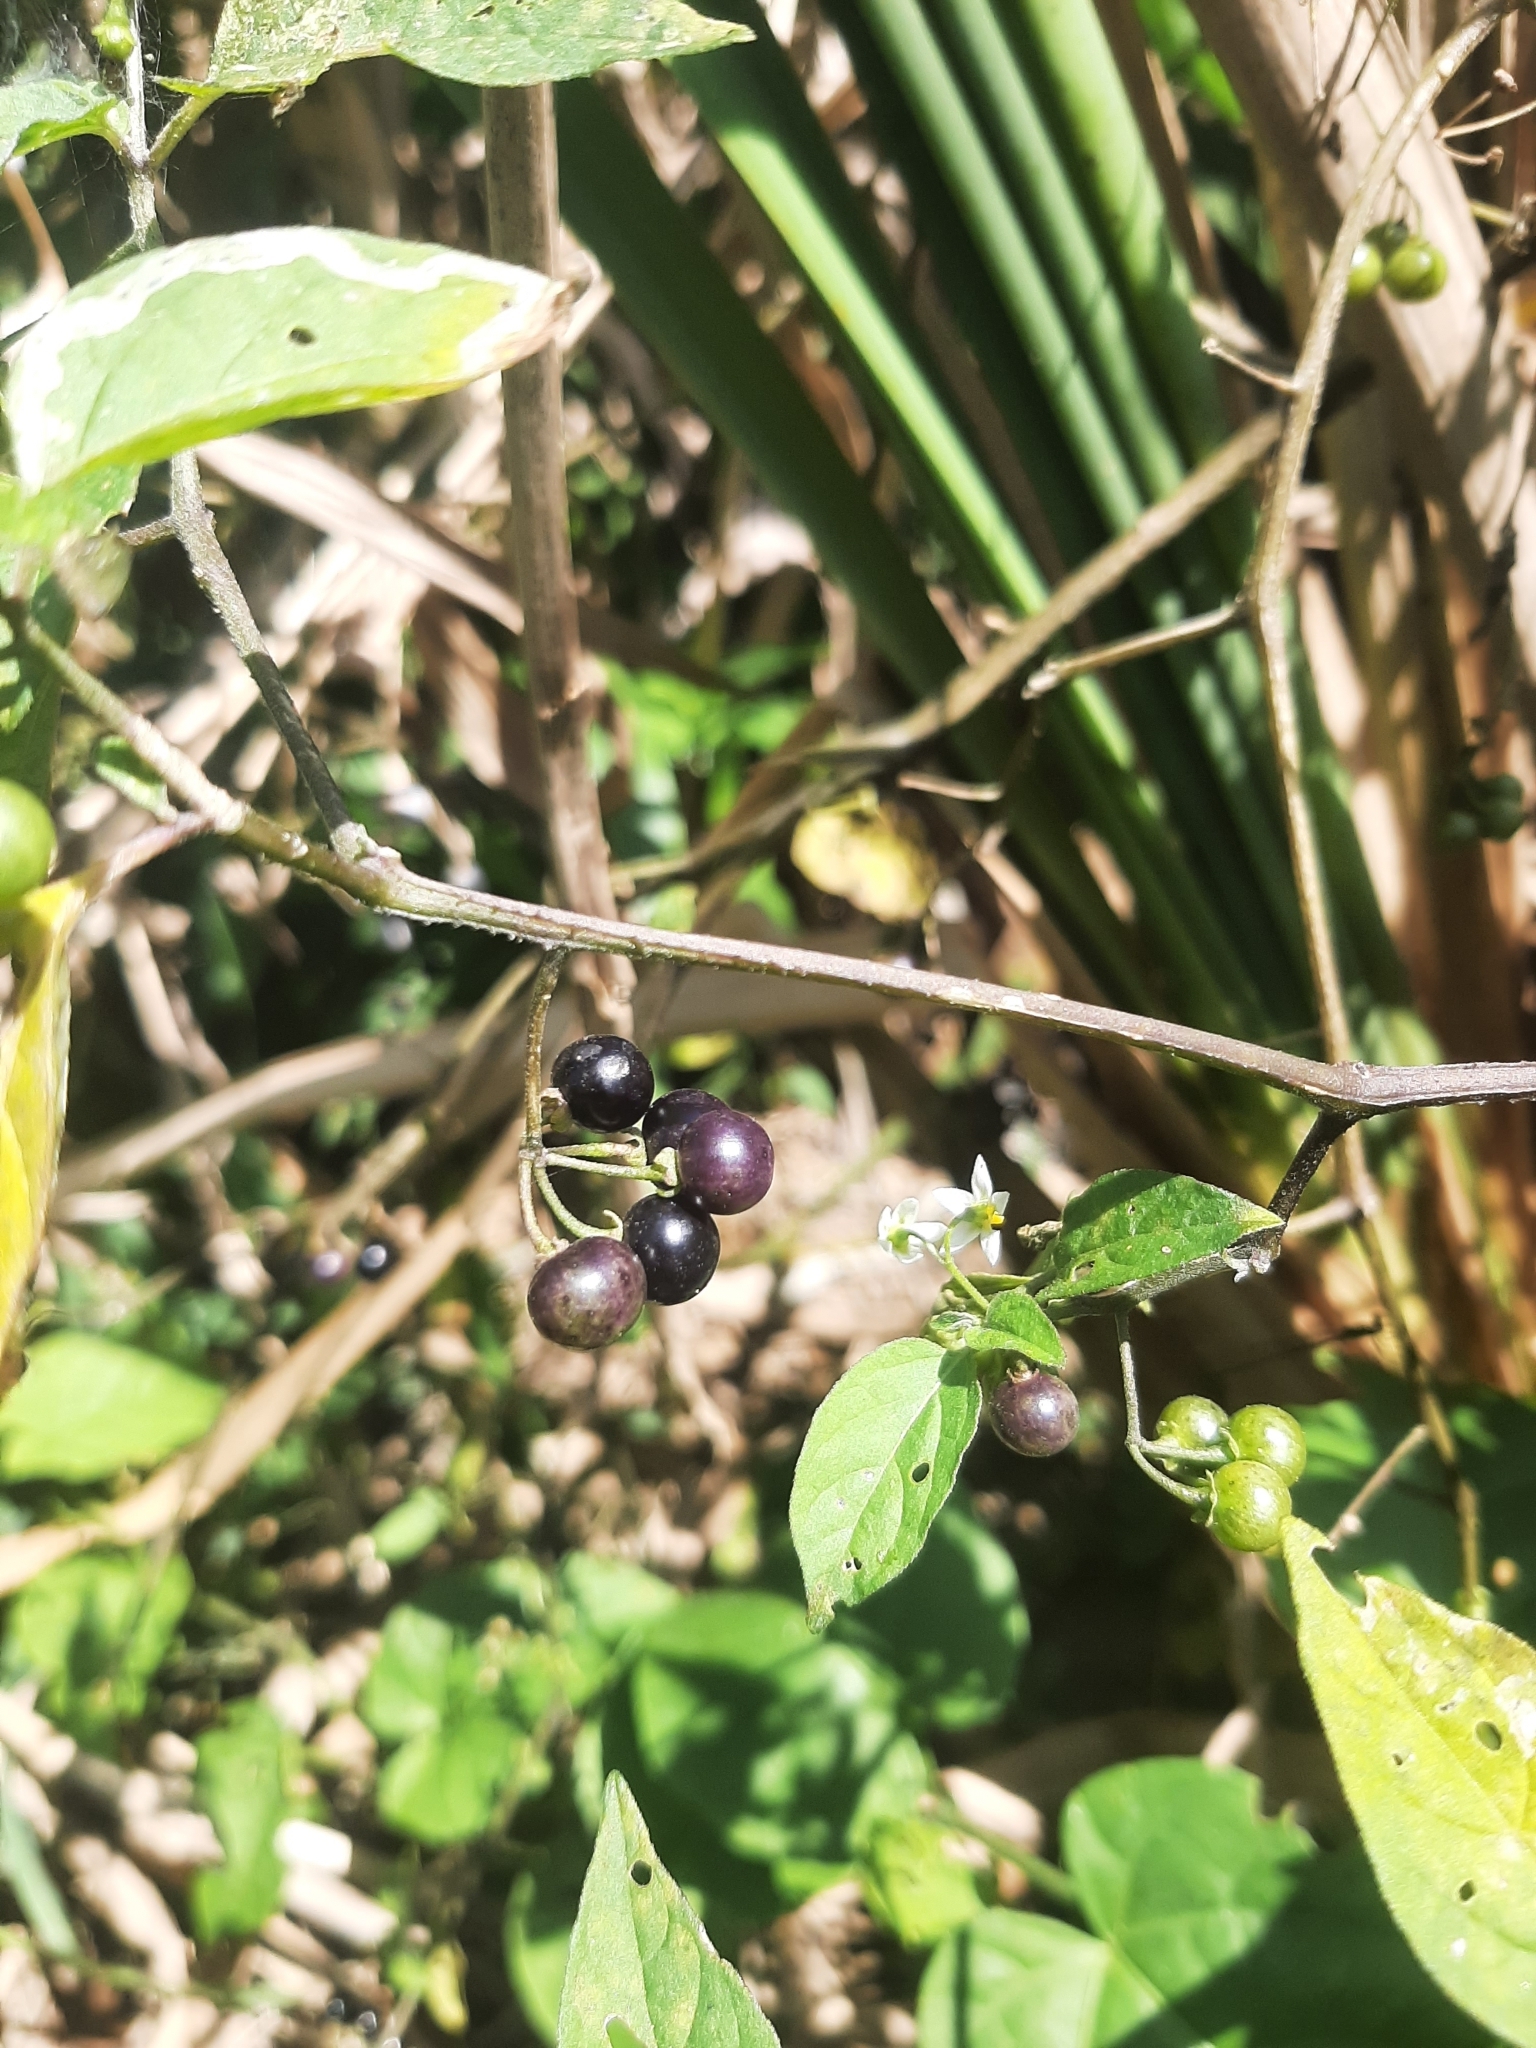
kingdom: Plantae
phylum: Tracheophyta
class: Magnoliopsida
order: Solanales
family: Solanaceae
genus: Solanum
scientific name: Solanum americanum
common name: American black nightshade
